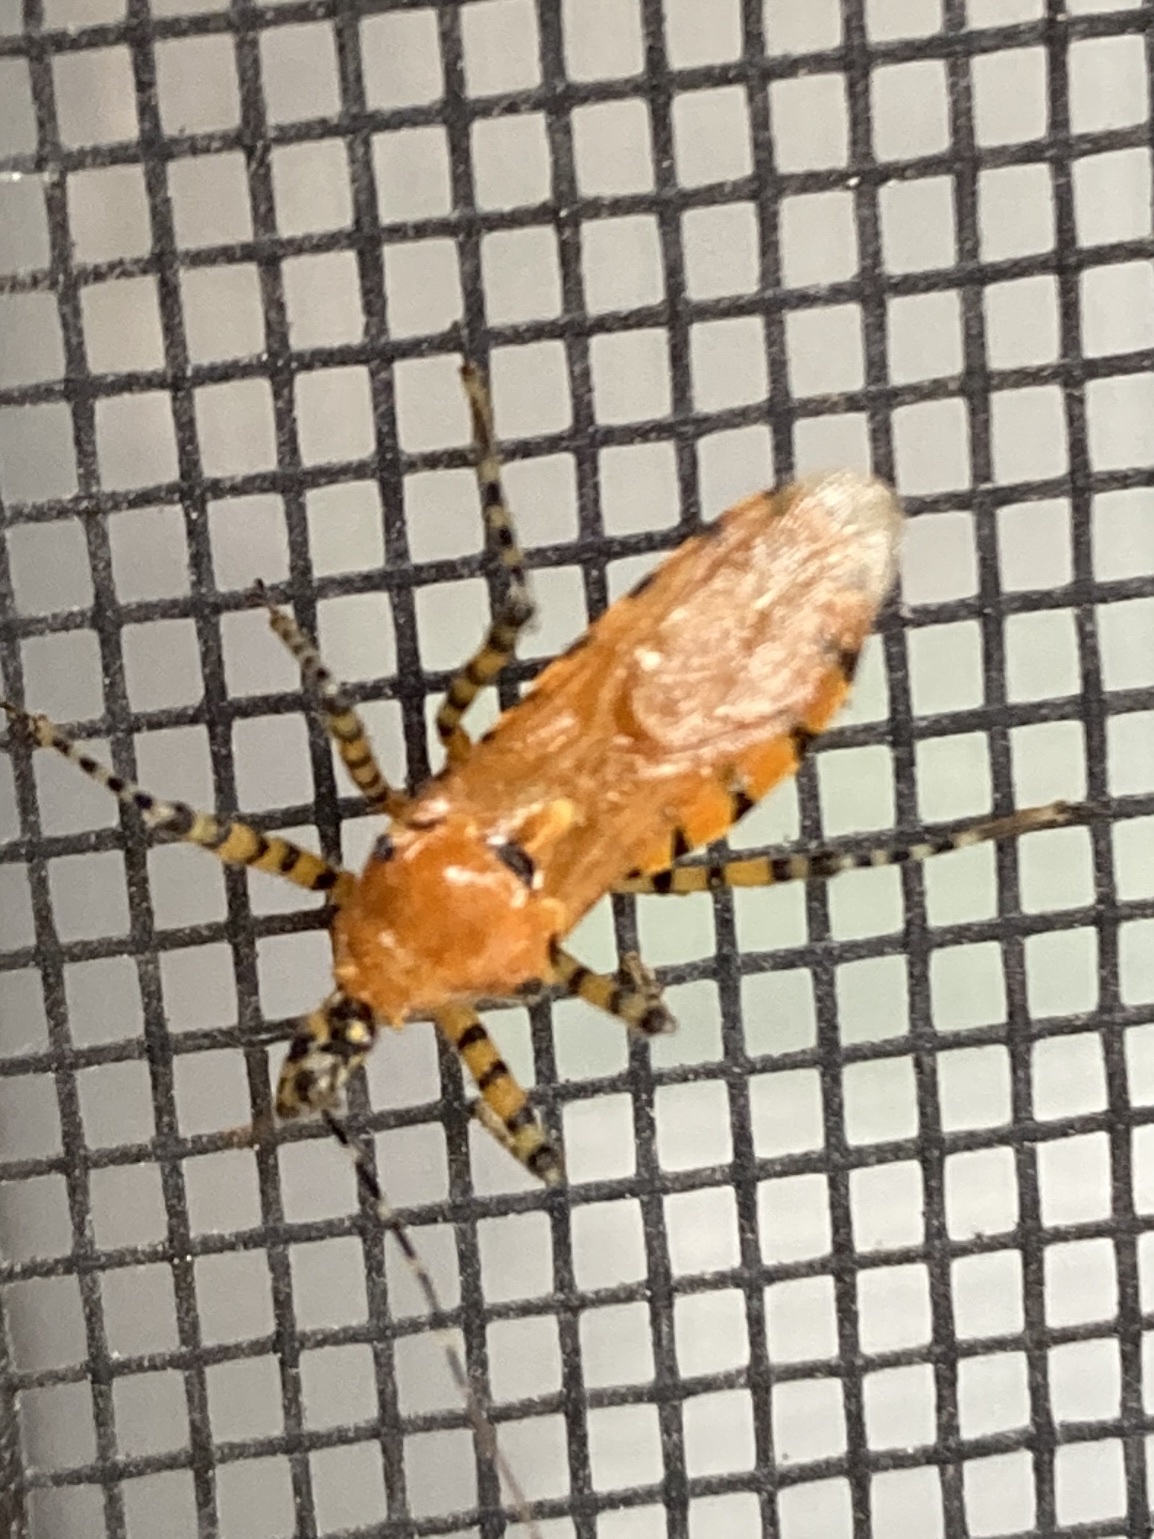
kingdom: Animalia
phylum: Arthropoda
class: Insecta
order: Hemiptera
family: Reduviidae
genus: Pselliopus
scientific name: Pselliopus barberi
